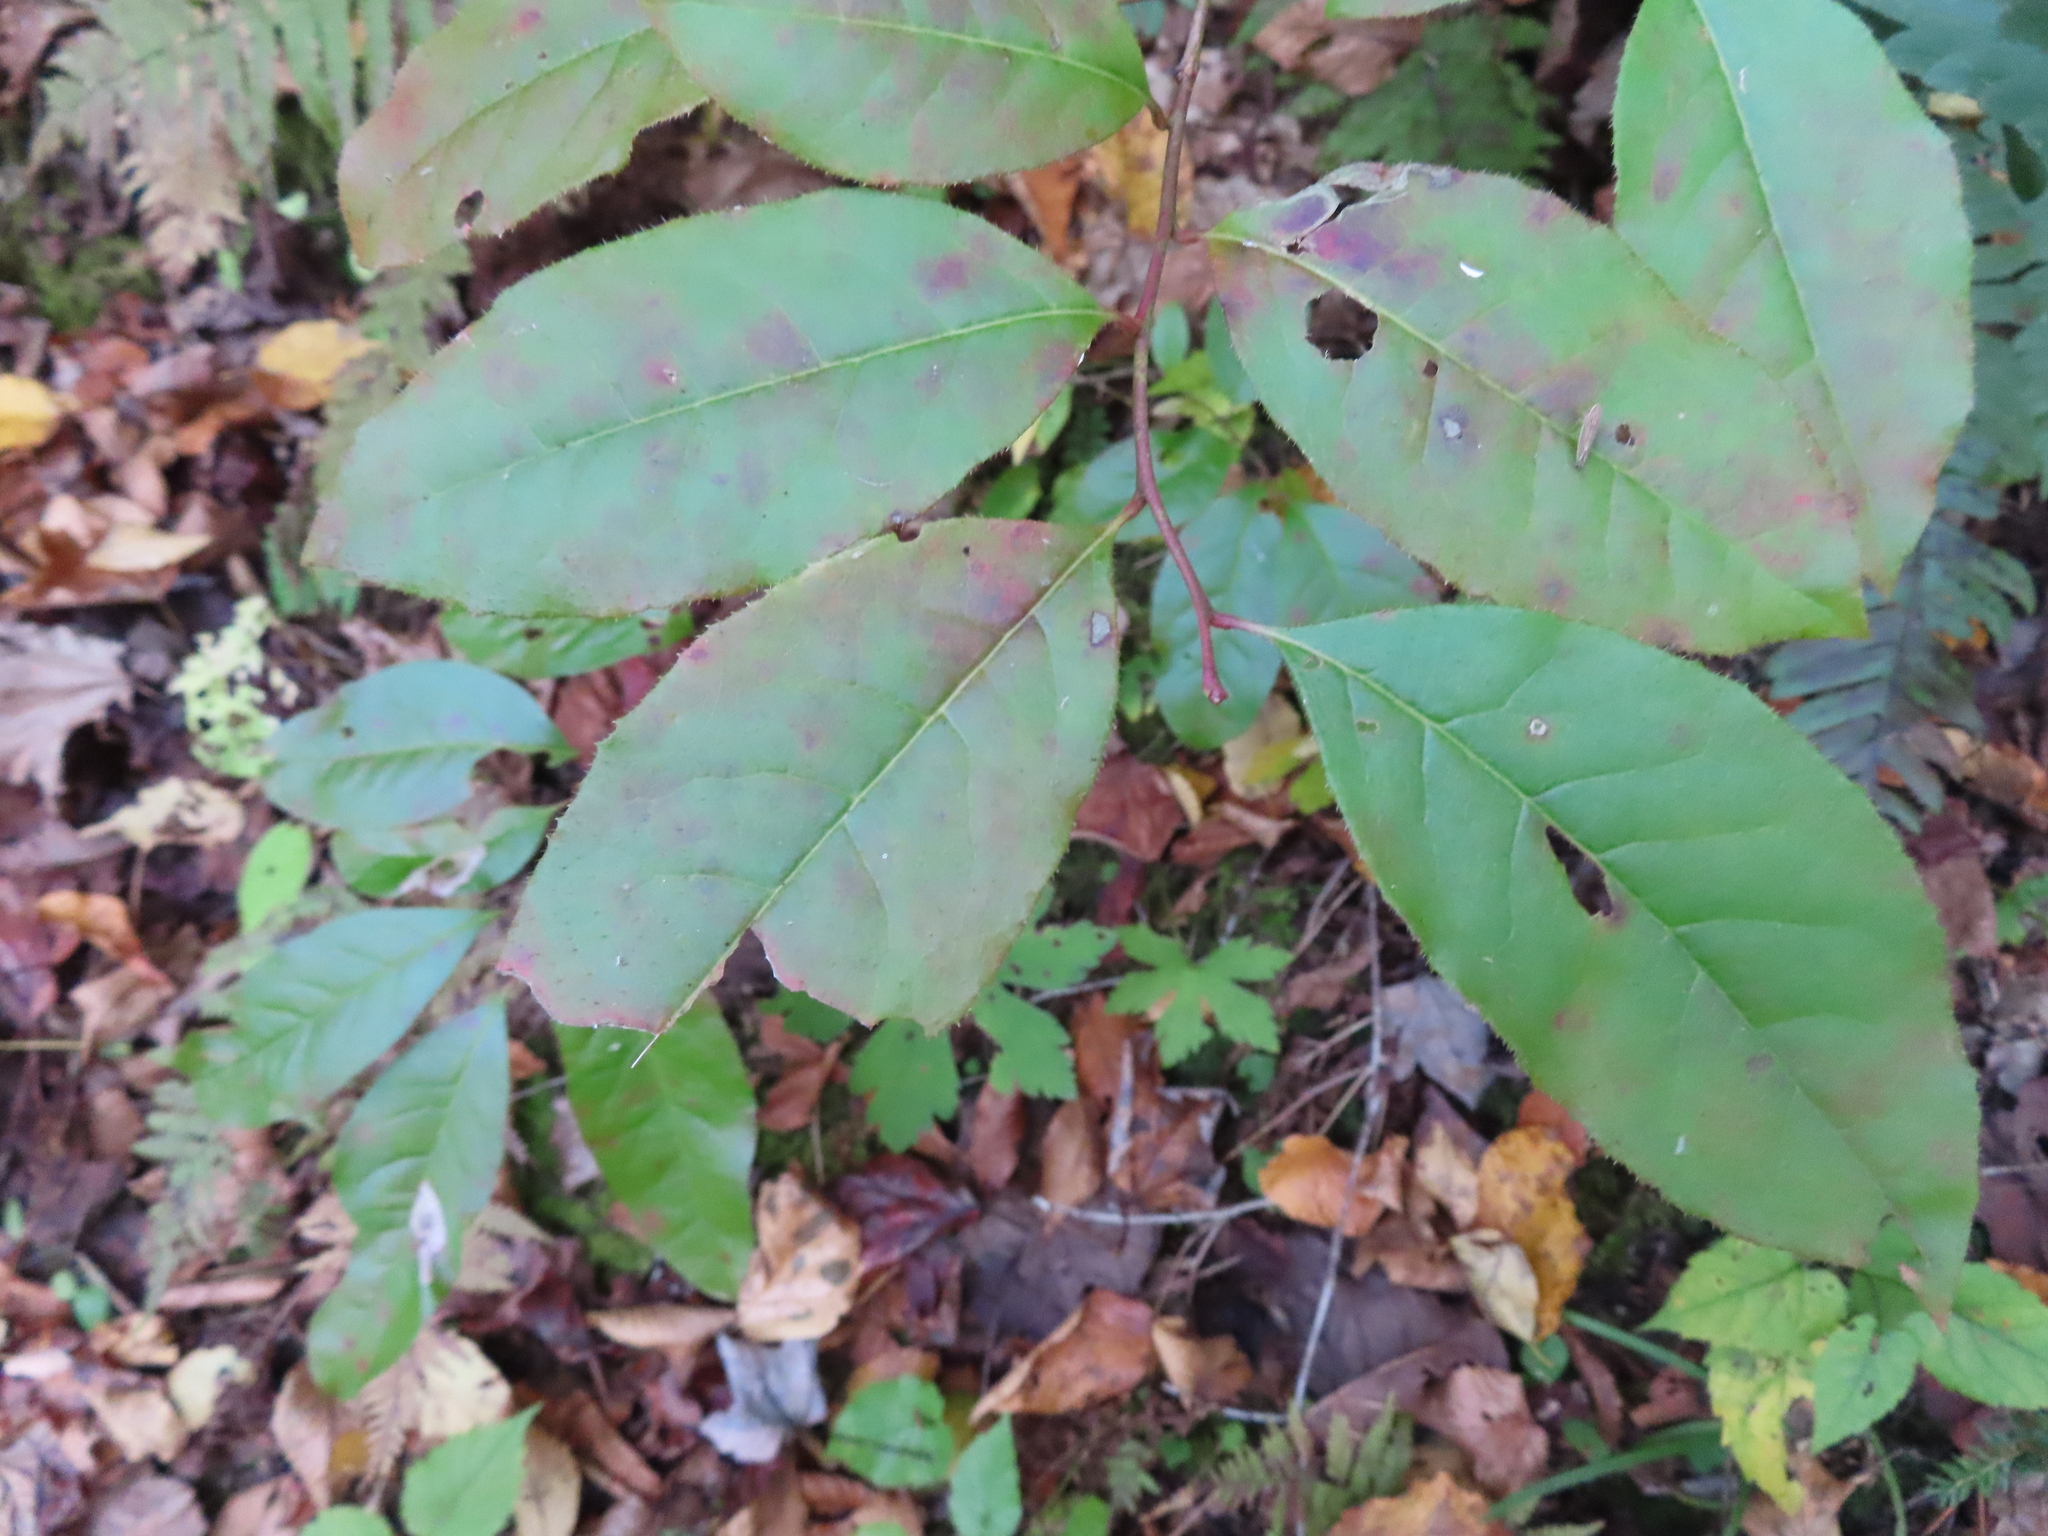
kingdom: Plantae
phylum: Tracheophyta
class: Magnoliopsida
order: Ericales
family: Ericaceae
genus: Oxydendrum
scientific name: Oxydendrum arboreum
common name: Sourwood
